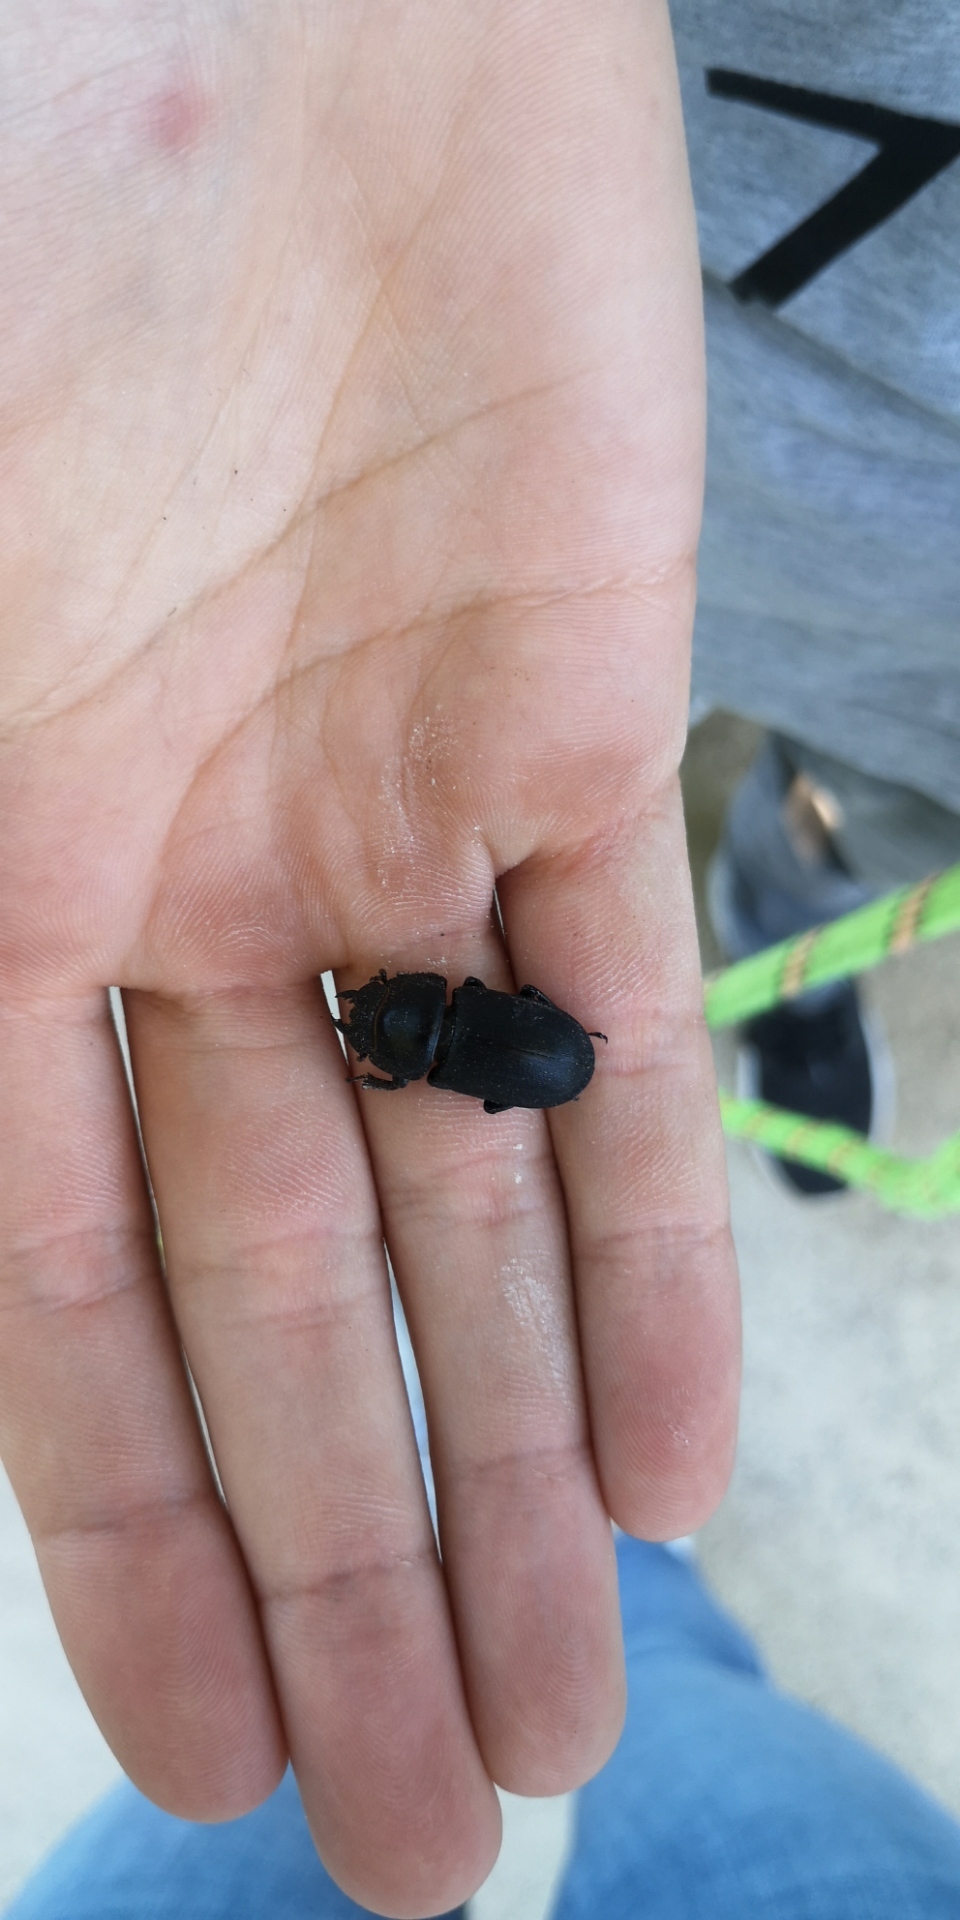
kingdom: Animalia
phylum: Arthropoda
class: Insecta
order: Coleoptera
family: Lucanidae
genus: Dorcus
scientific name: Dorcus parallelipipedus
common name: Lesser stag beetle
